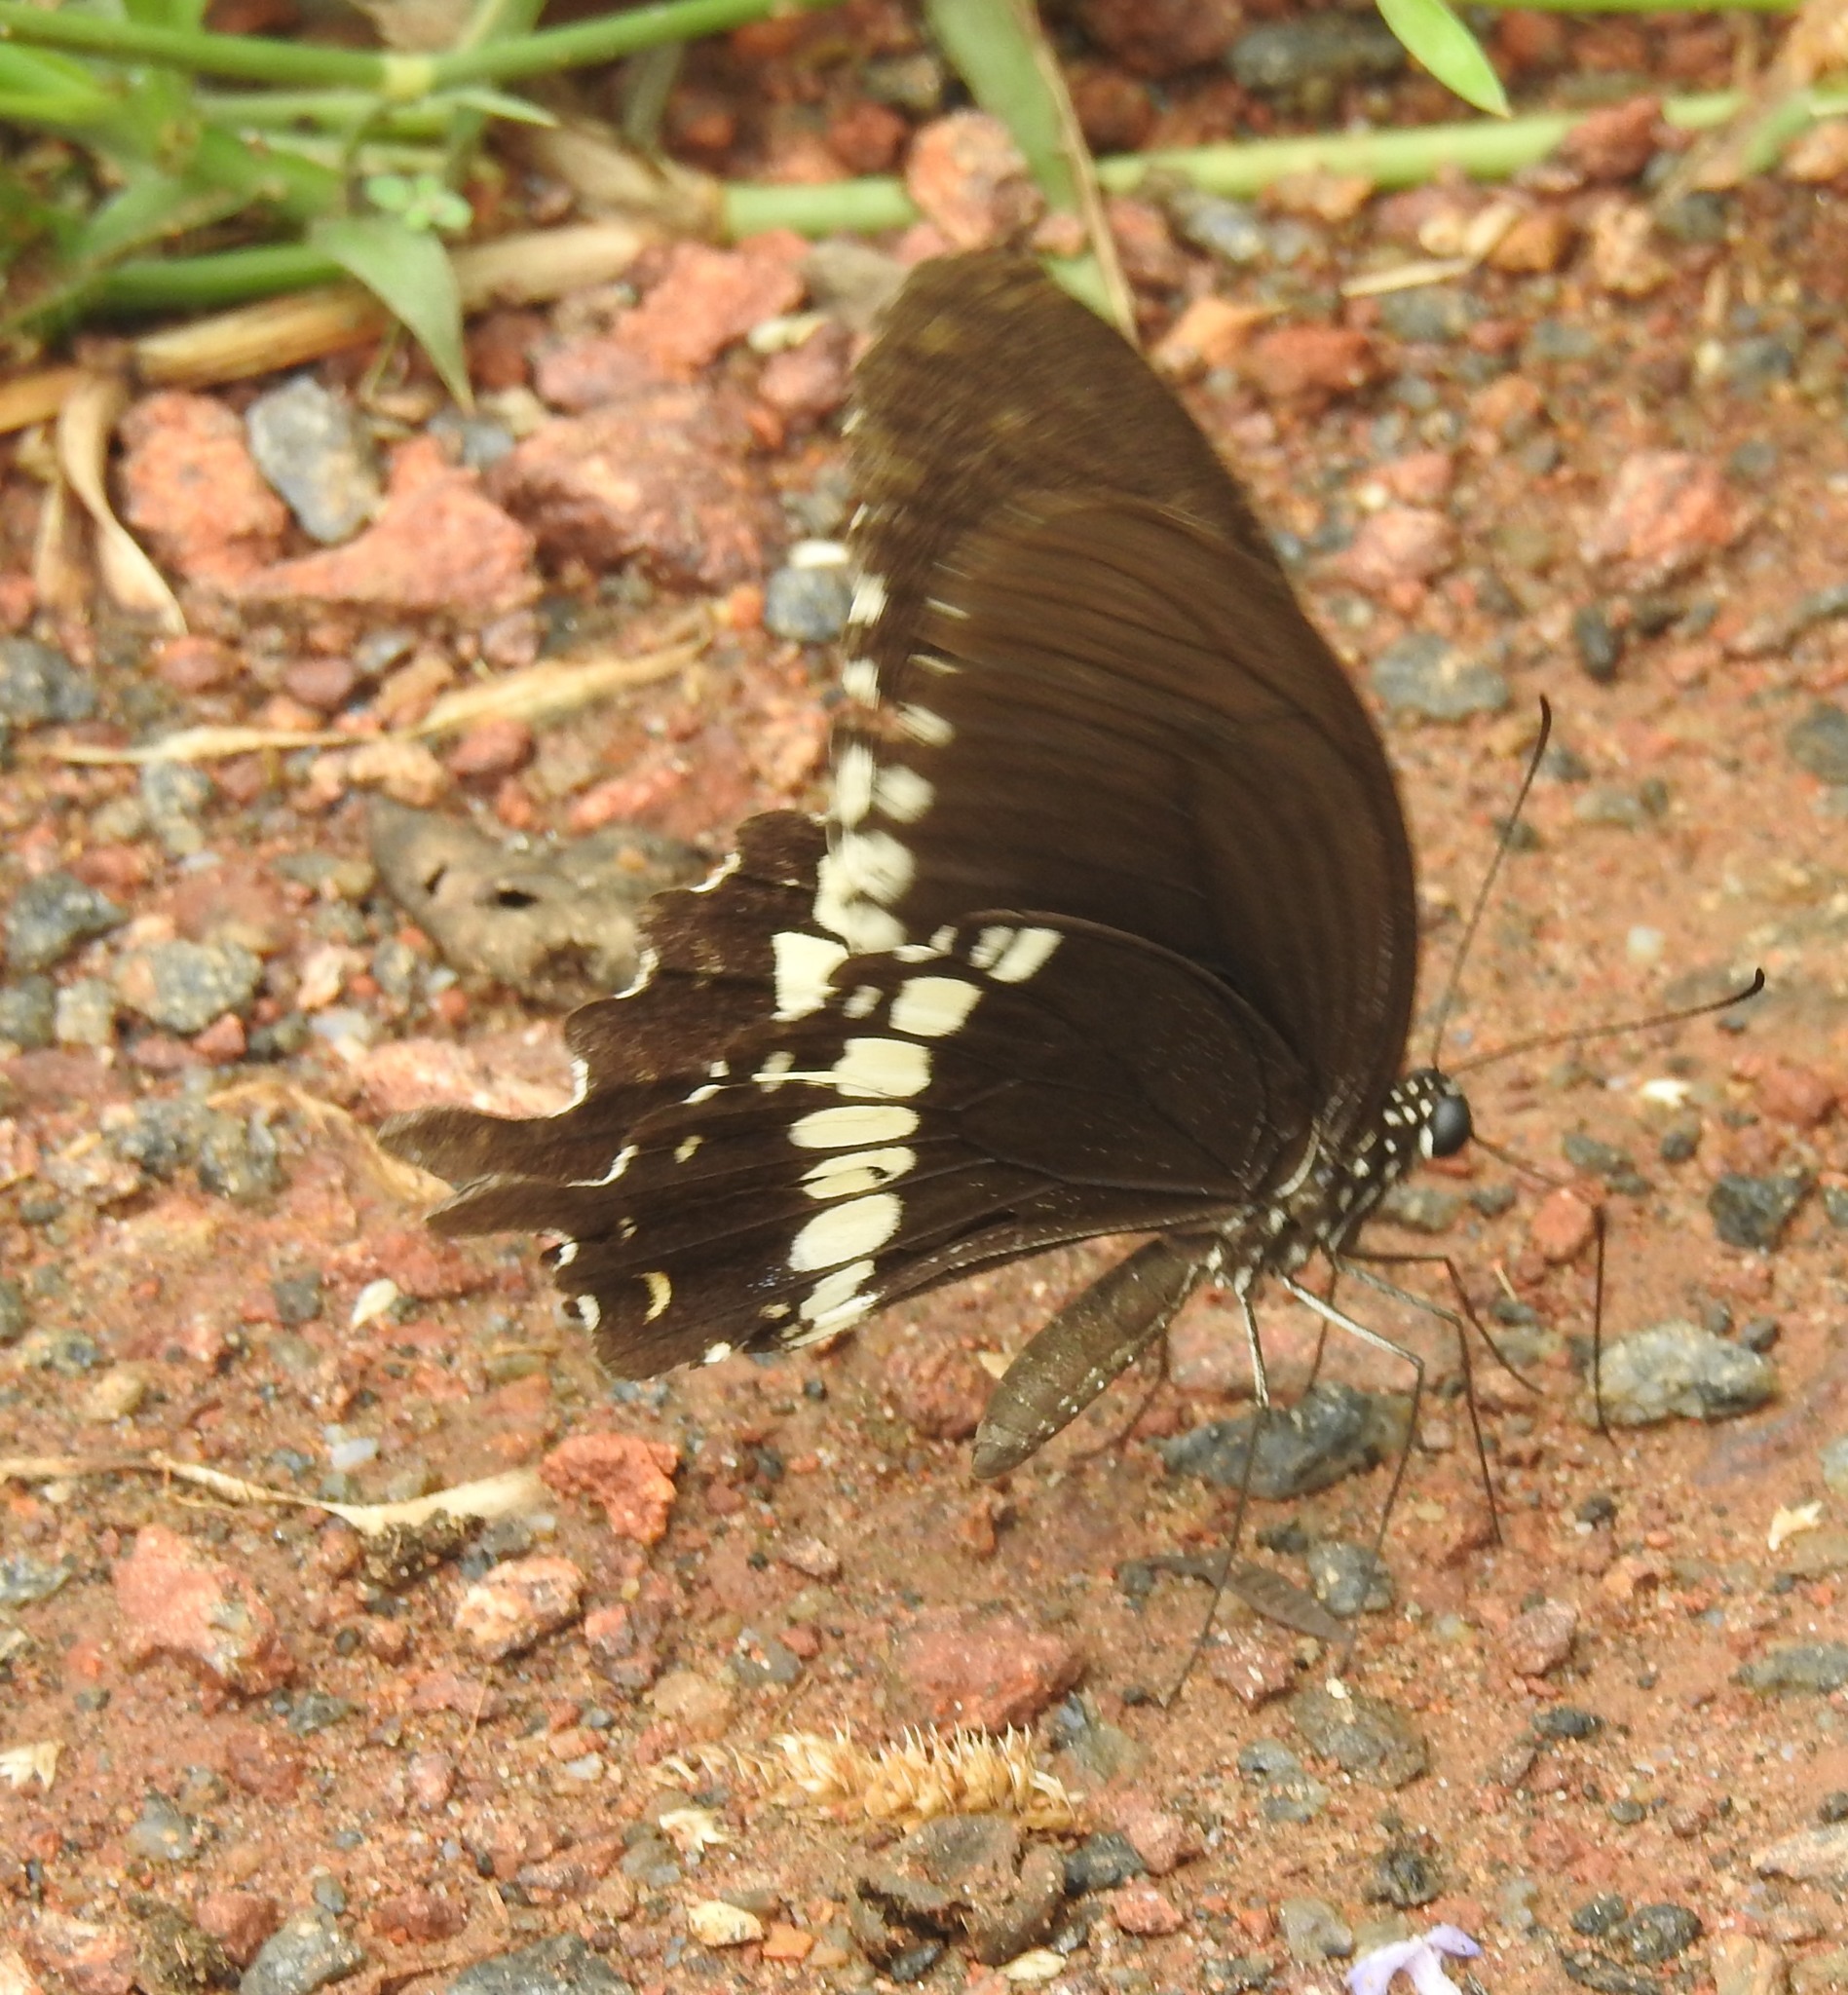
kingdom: Animalia
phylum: Arthropoda
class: Insecta
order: Lepidoptera
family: Papilionidae
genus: Papilio
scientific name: Papilio polytes
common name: Common mormon
